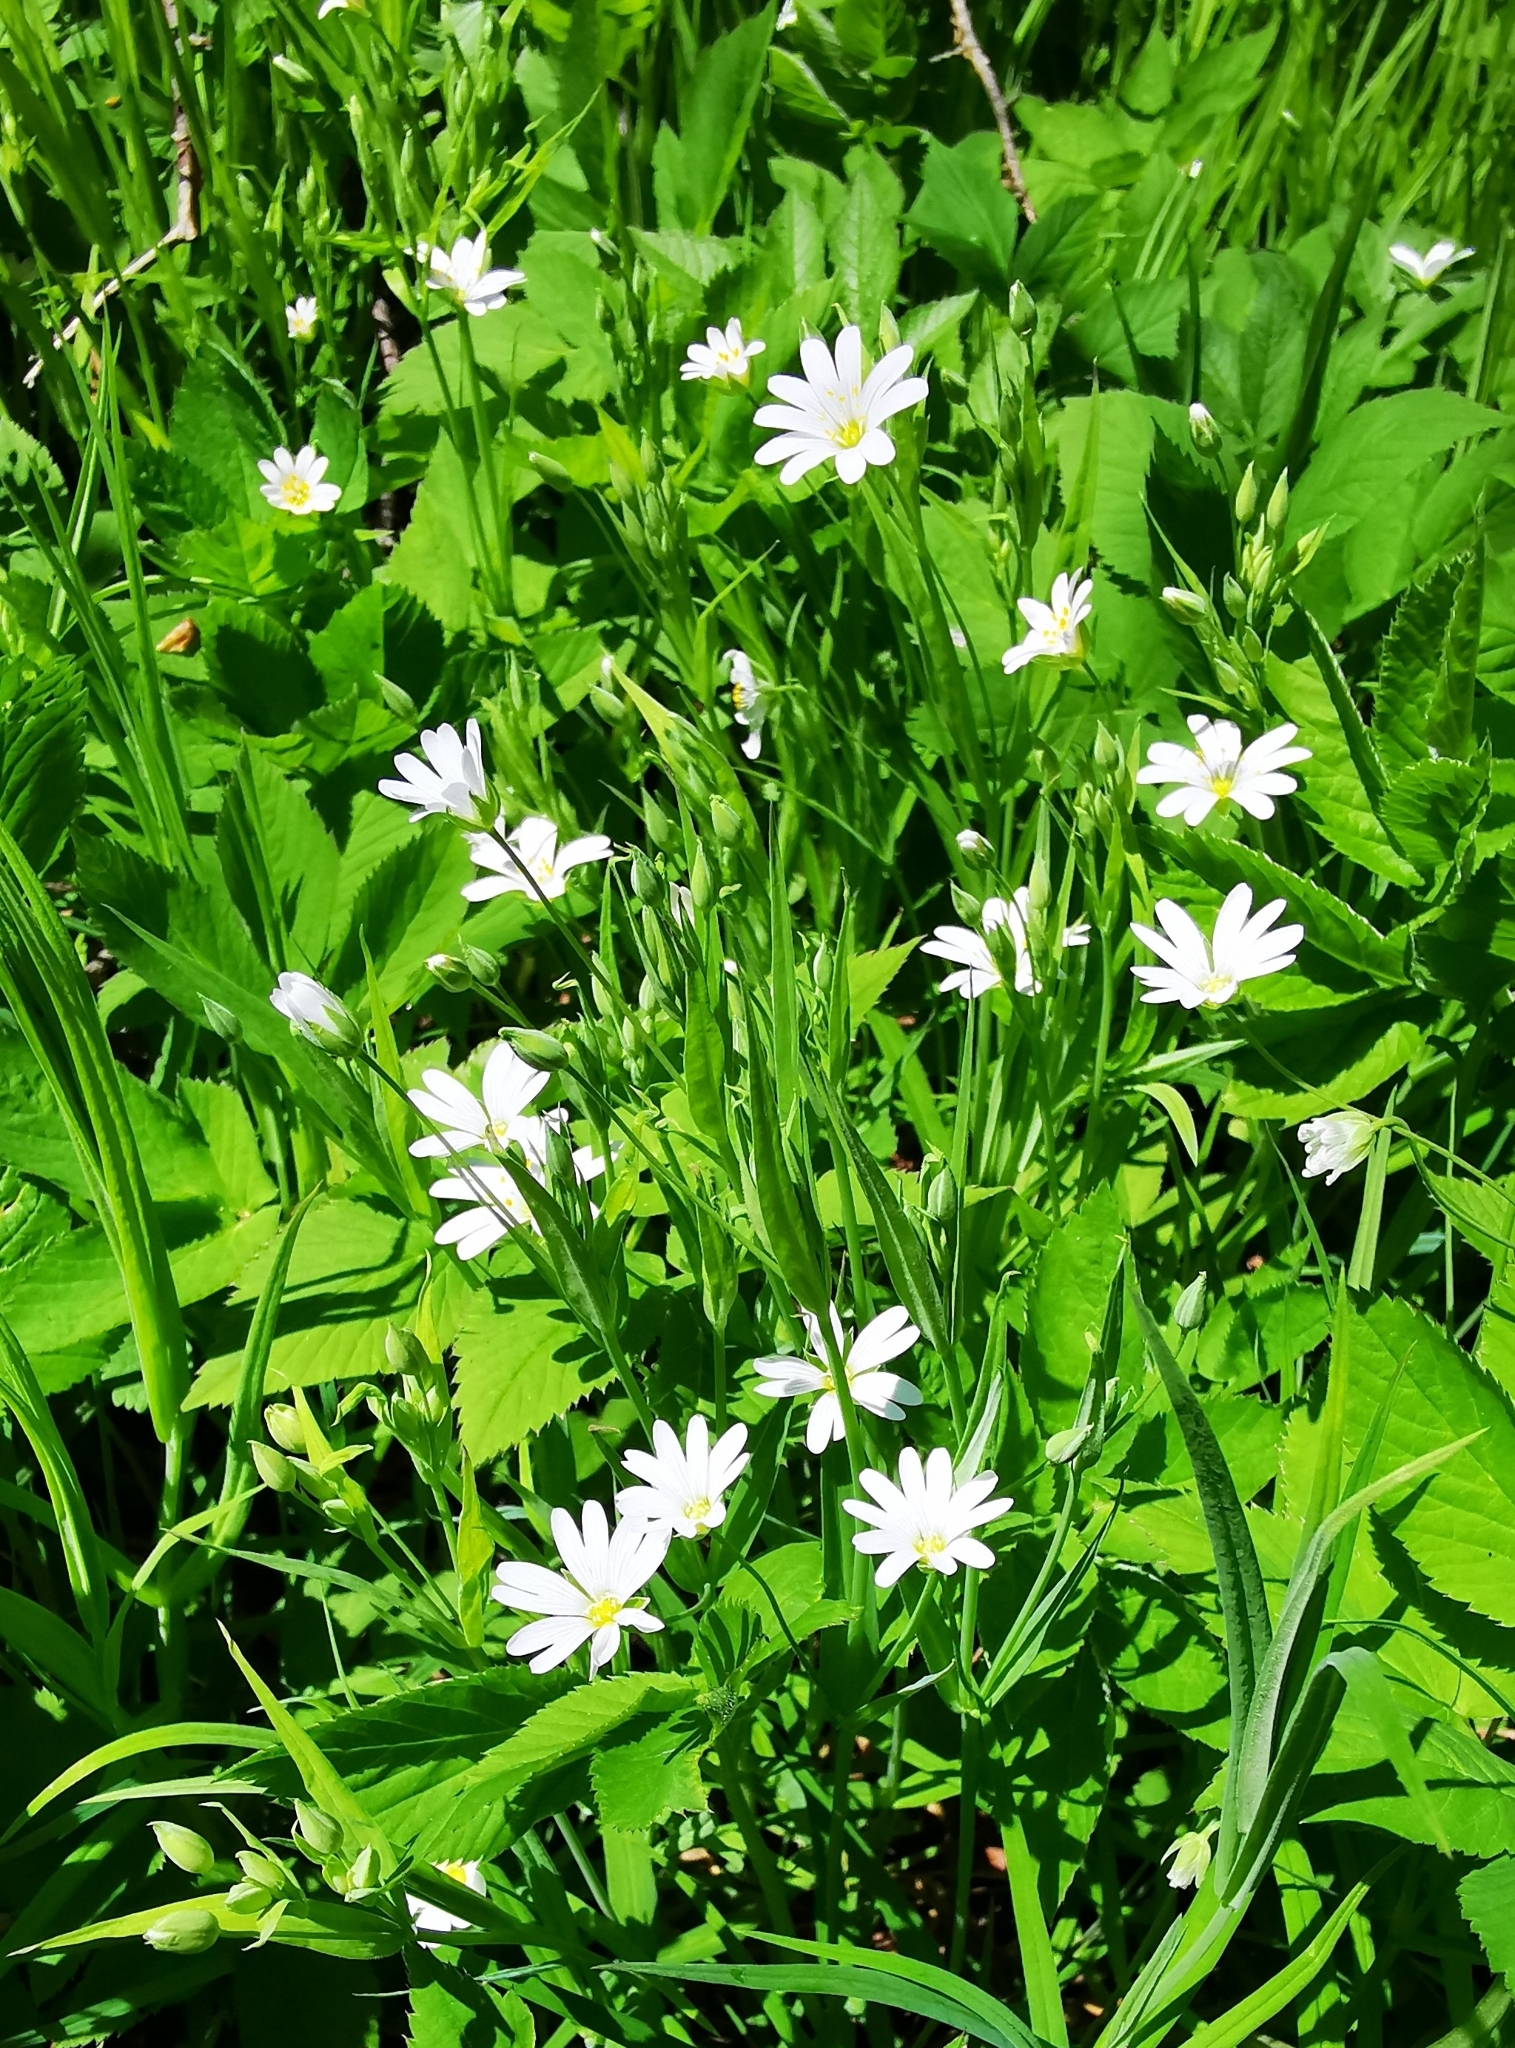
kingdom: Plantae
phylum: Tracheophyta
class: Magnoliopsida
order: Caryophyllales
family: Caryophyllaceae
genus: Rabelera
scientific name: Rabelera holostea
